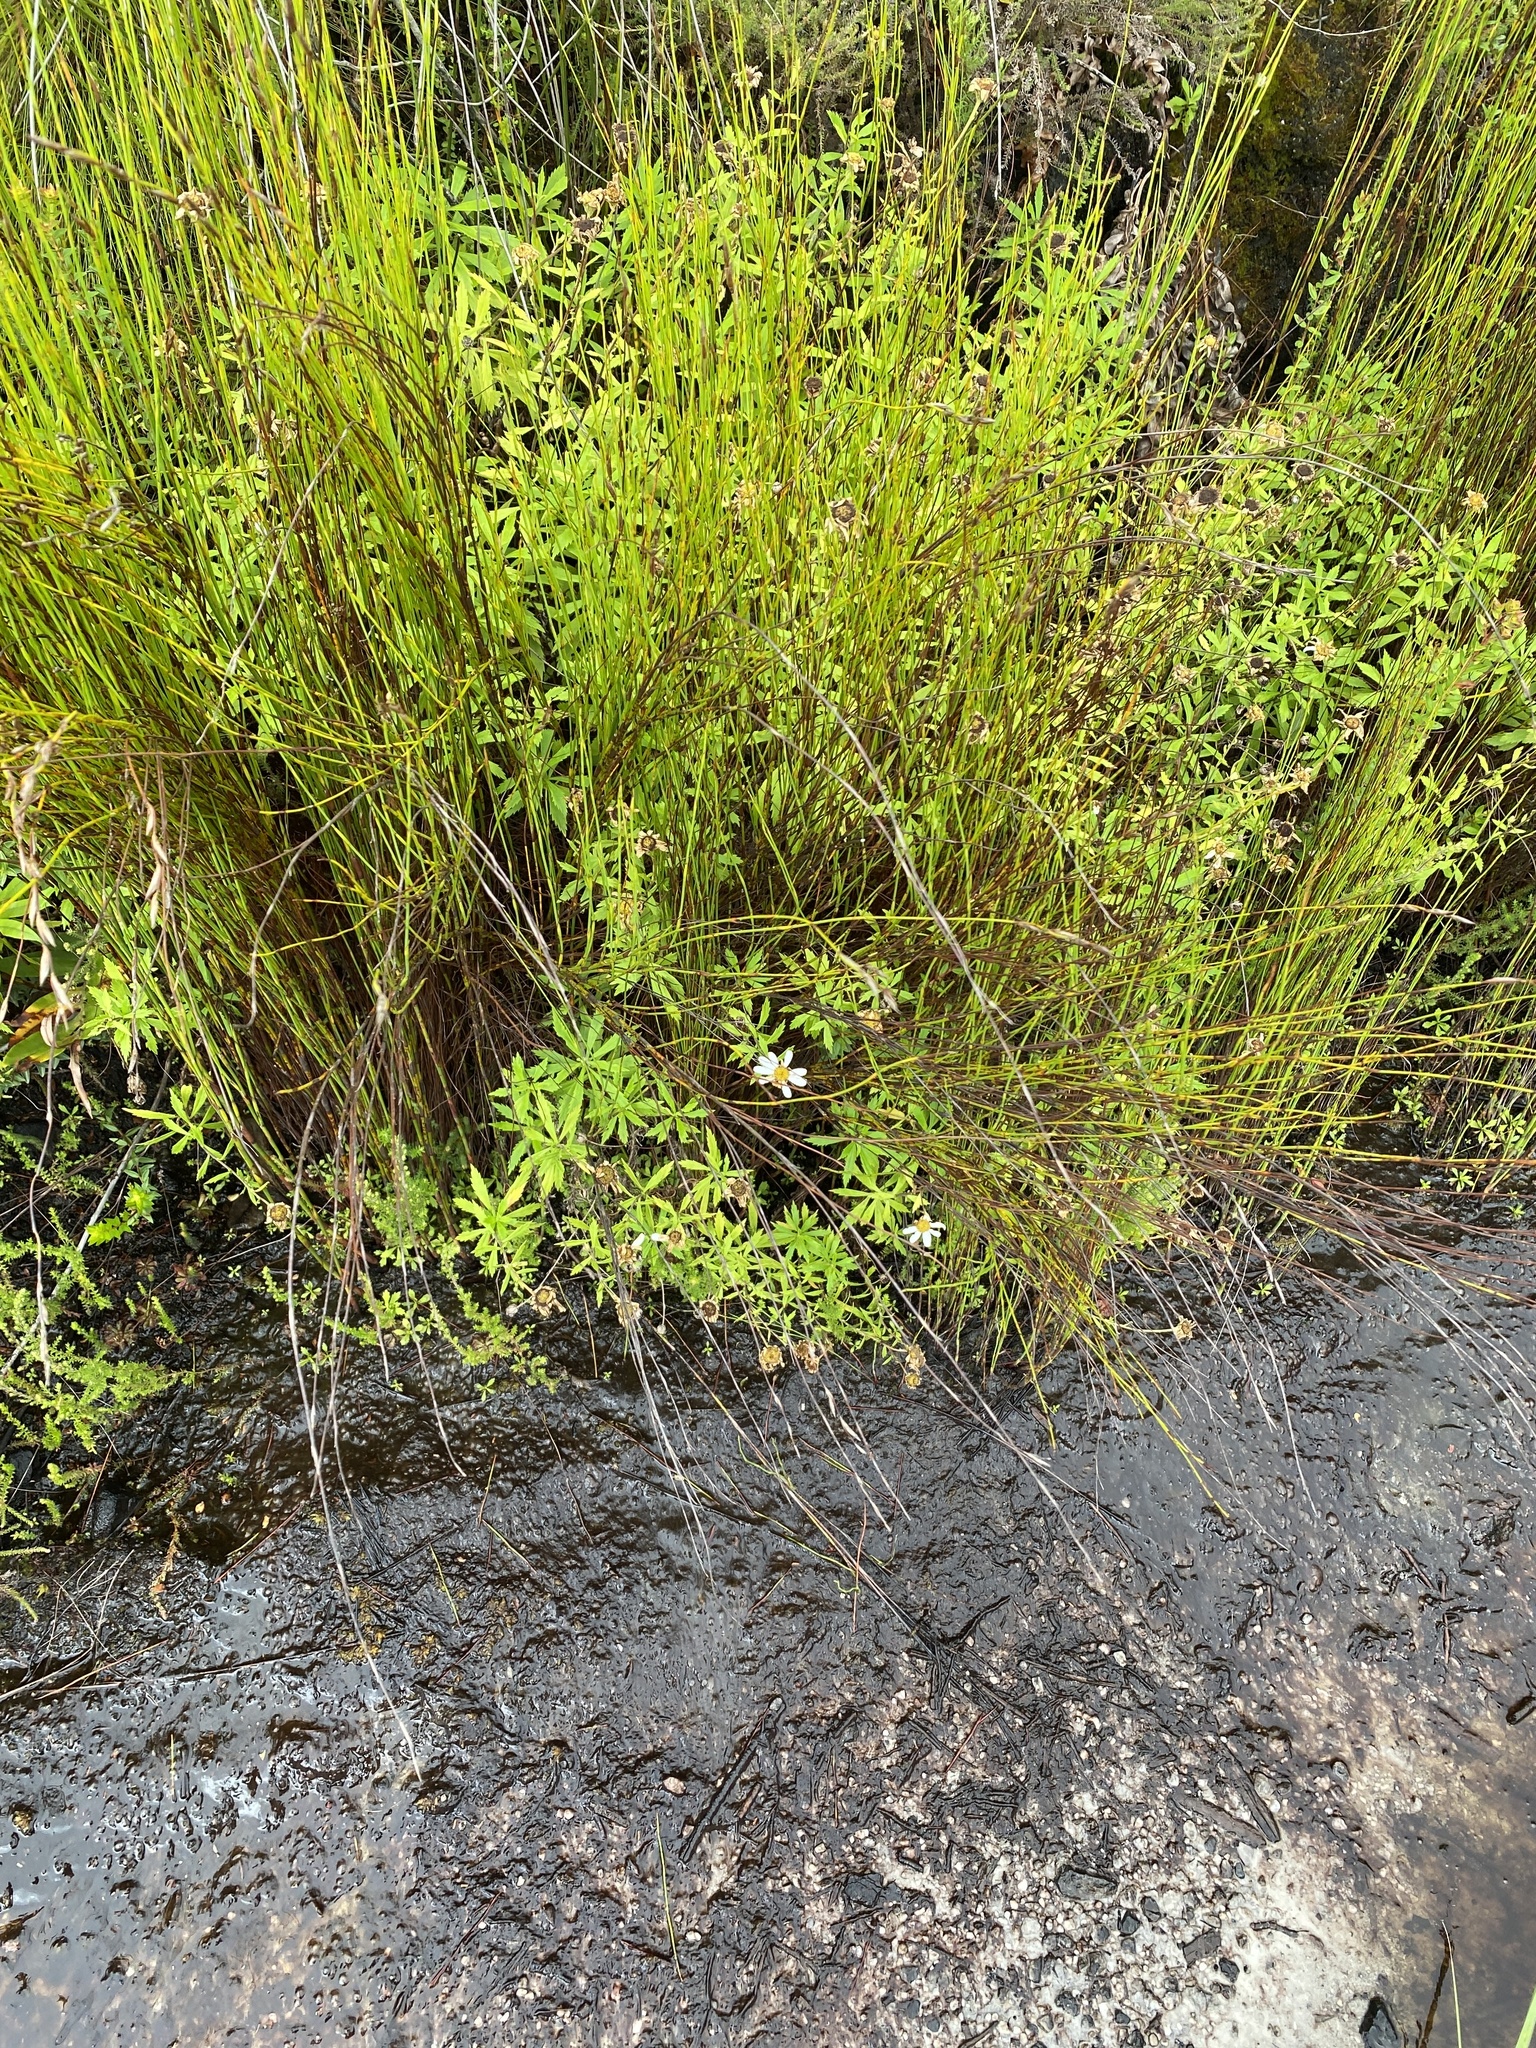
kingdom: Plantae
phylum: Tracheophyta
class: Magnoliopsida
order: Asterales
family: Asteraceae
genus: Osmitopsis
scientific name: Osmitopsis osmitoides
